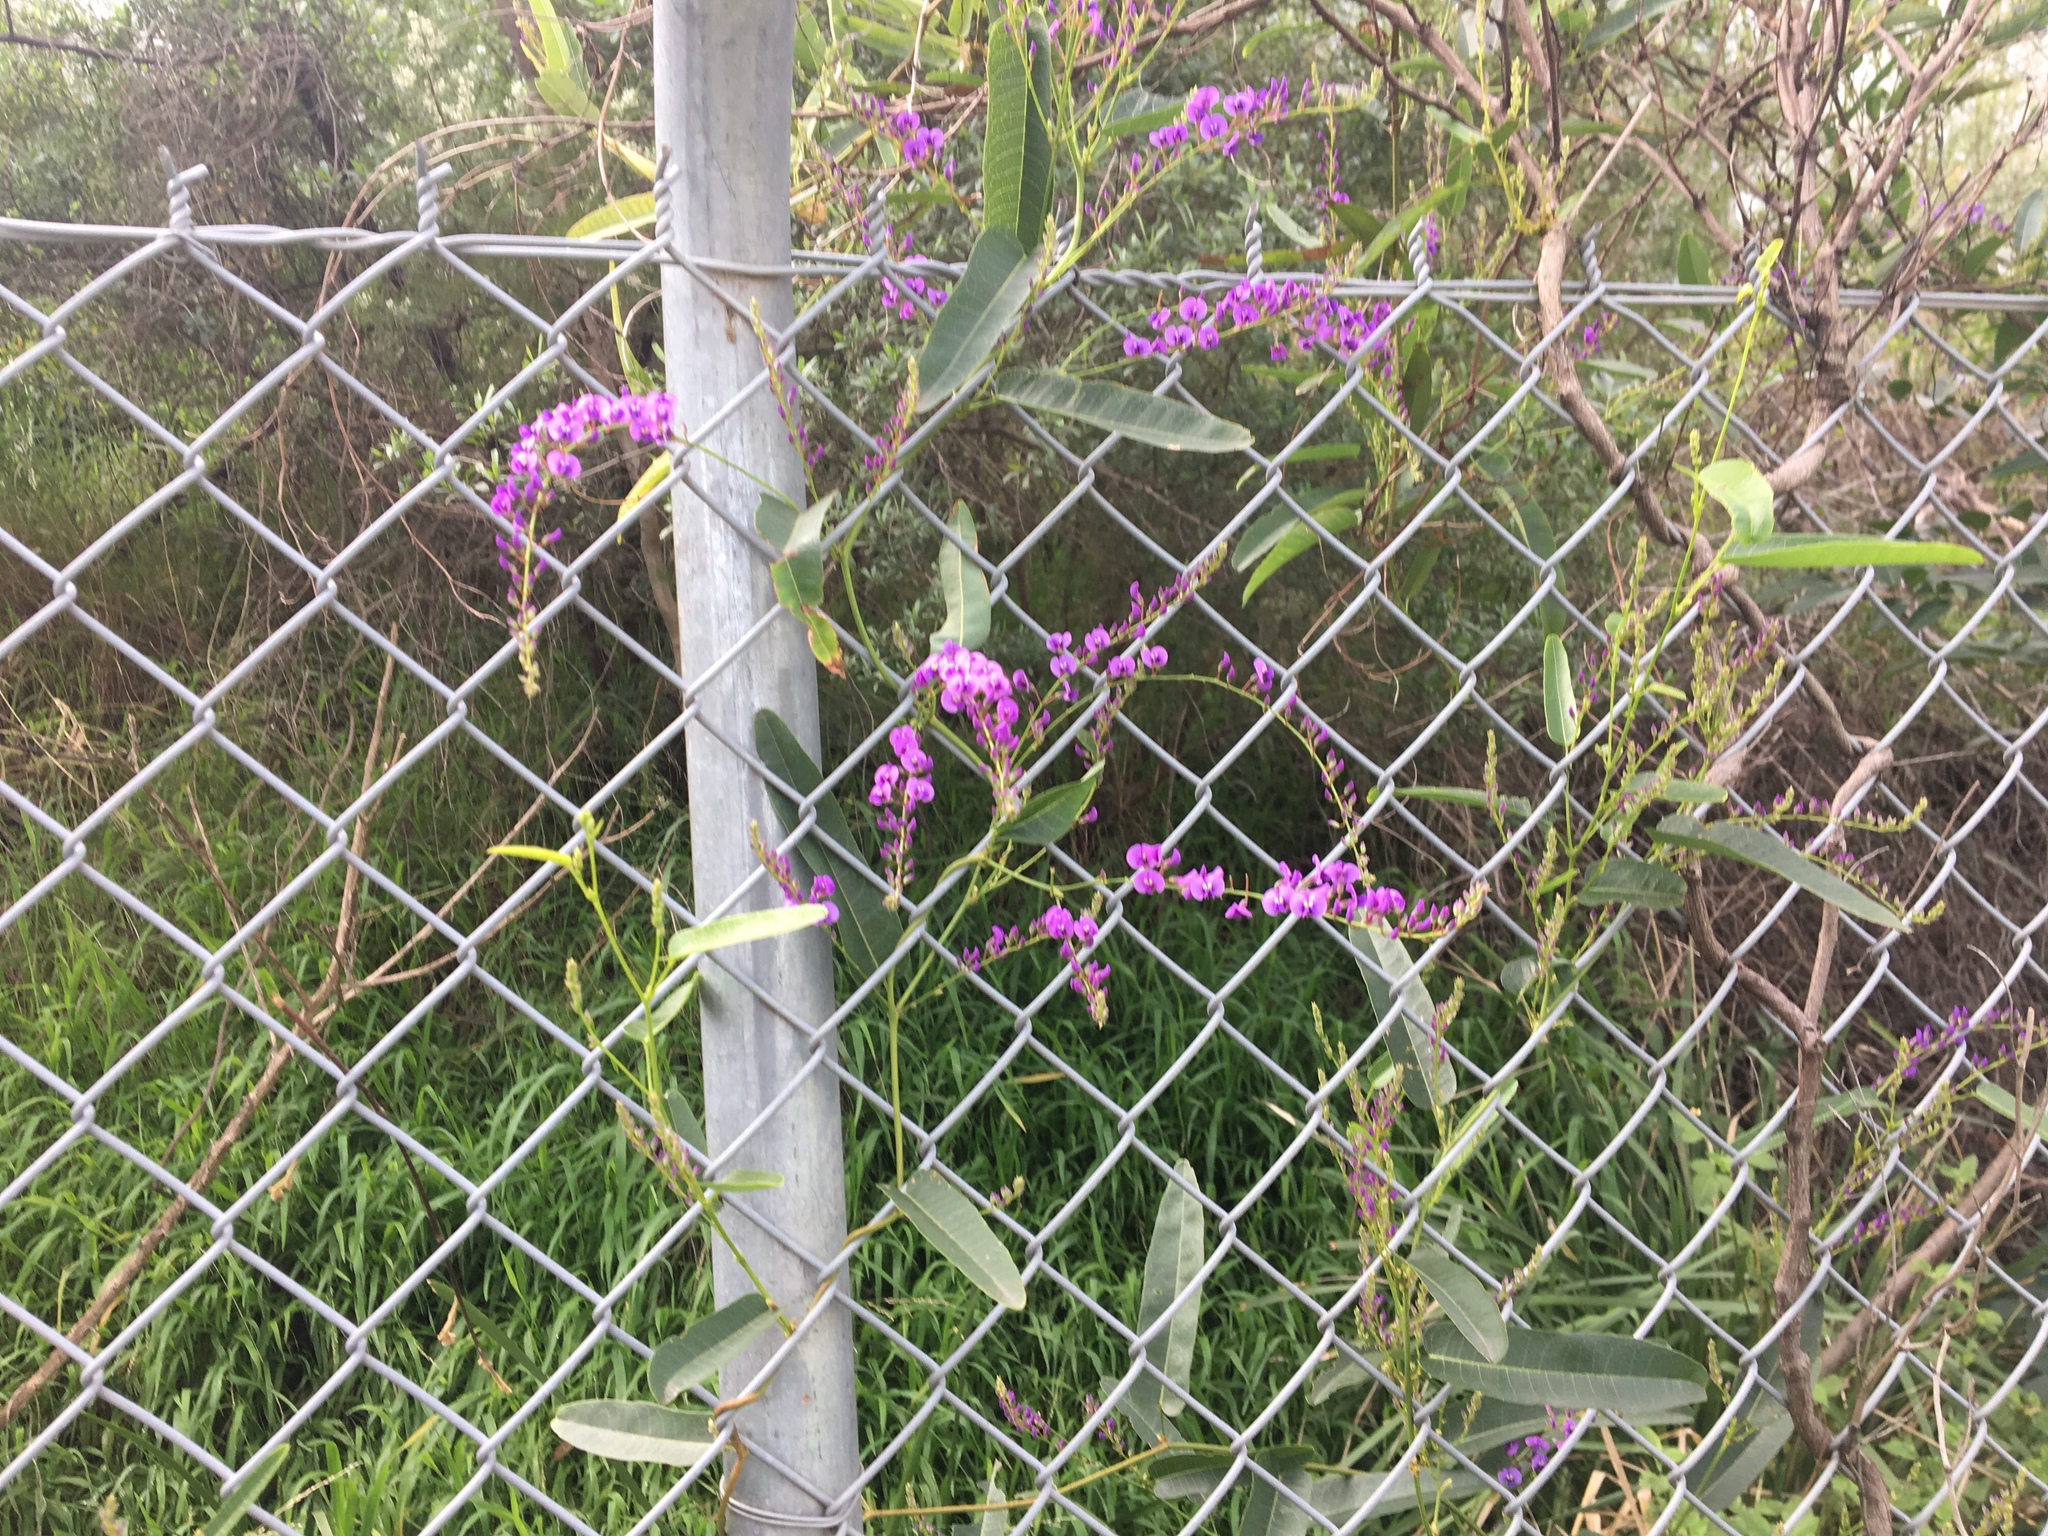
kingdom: Plantae
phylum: Tracheophyta
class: Magnoliopsida
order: Fabales
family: Fabaceae
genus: Hardenbergia
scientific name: Hardenbergia violacea
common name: Coral-pea
